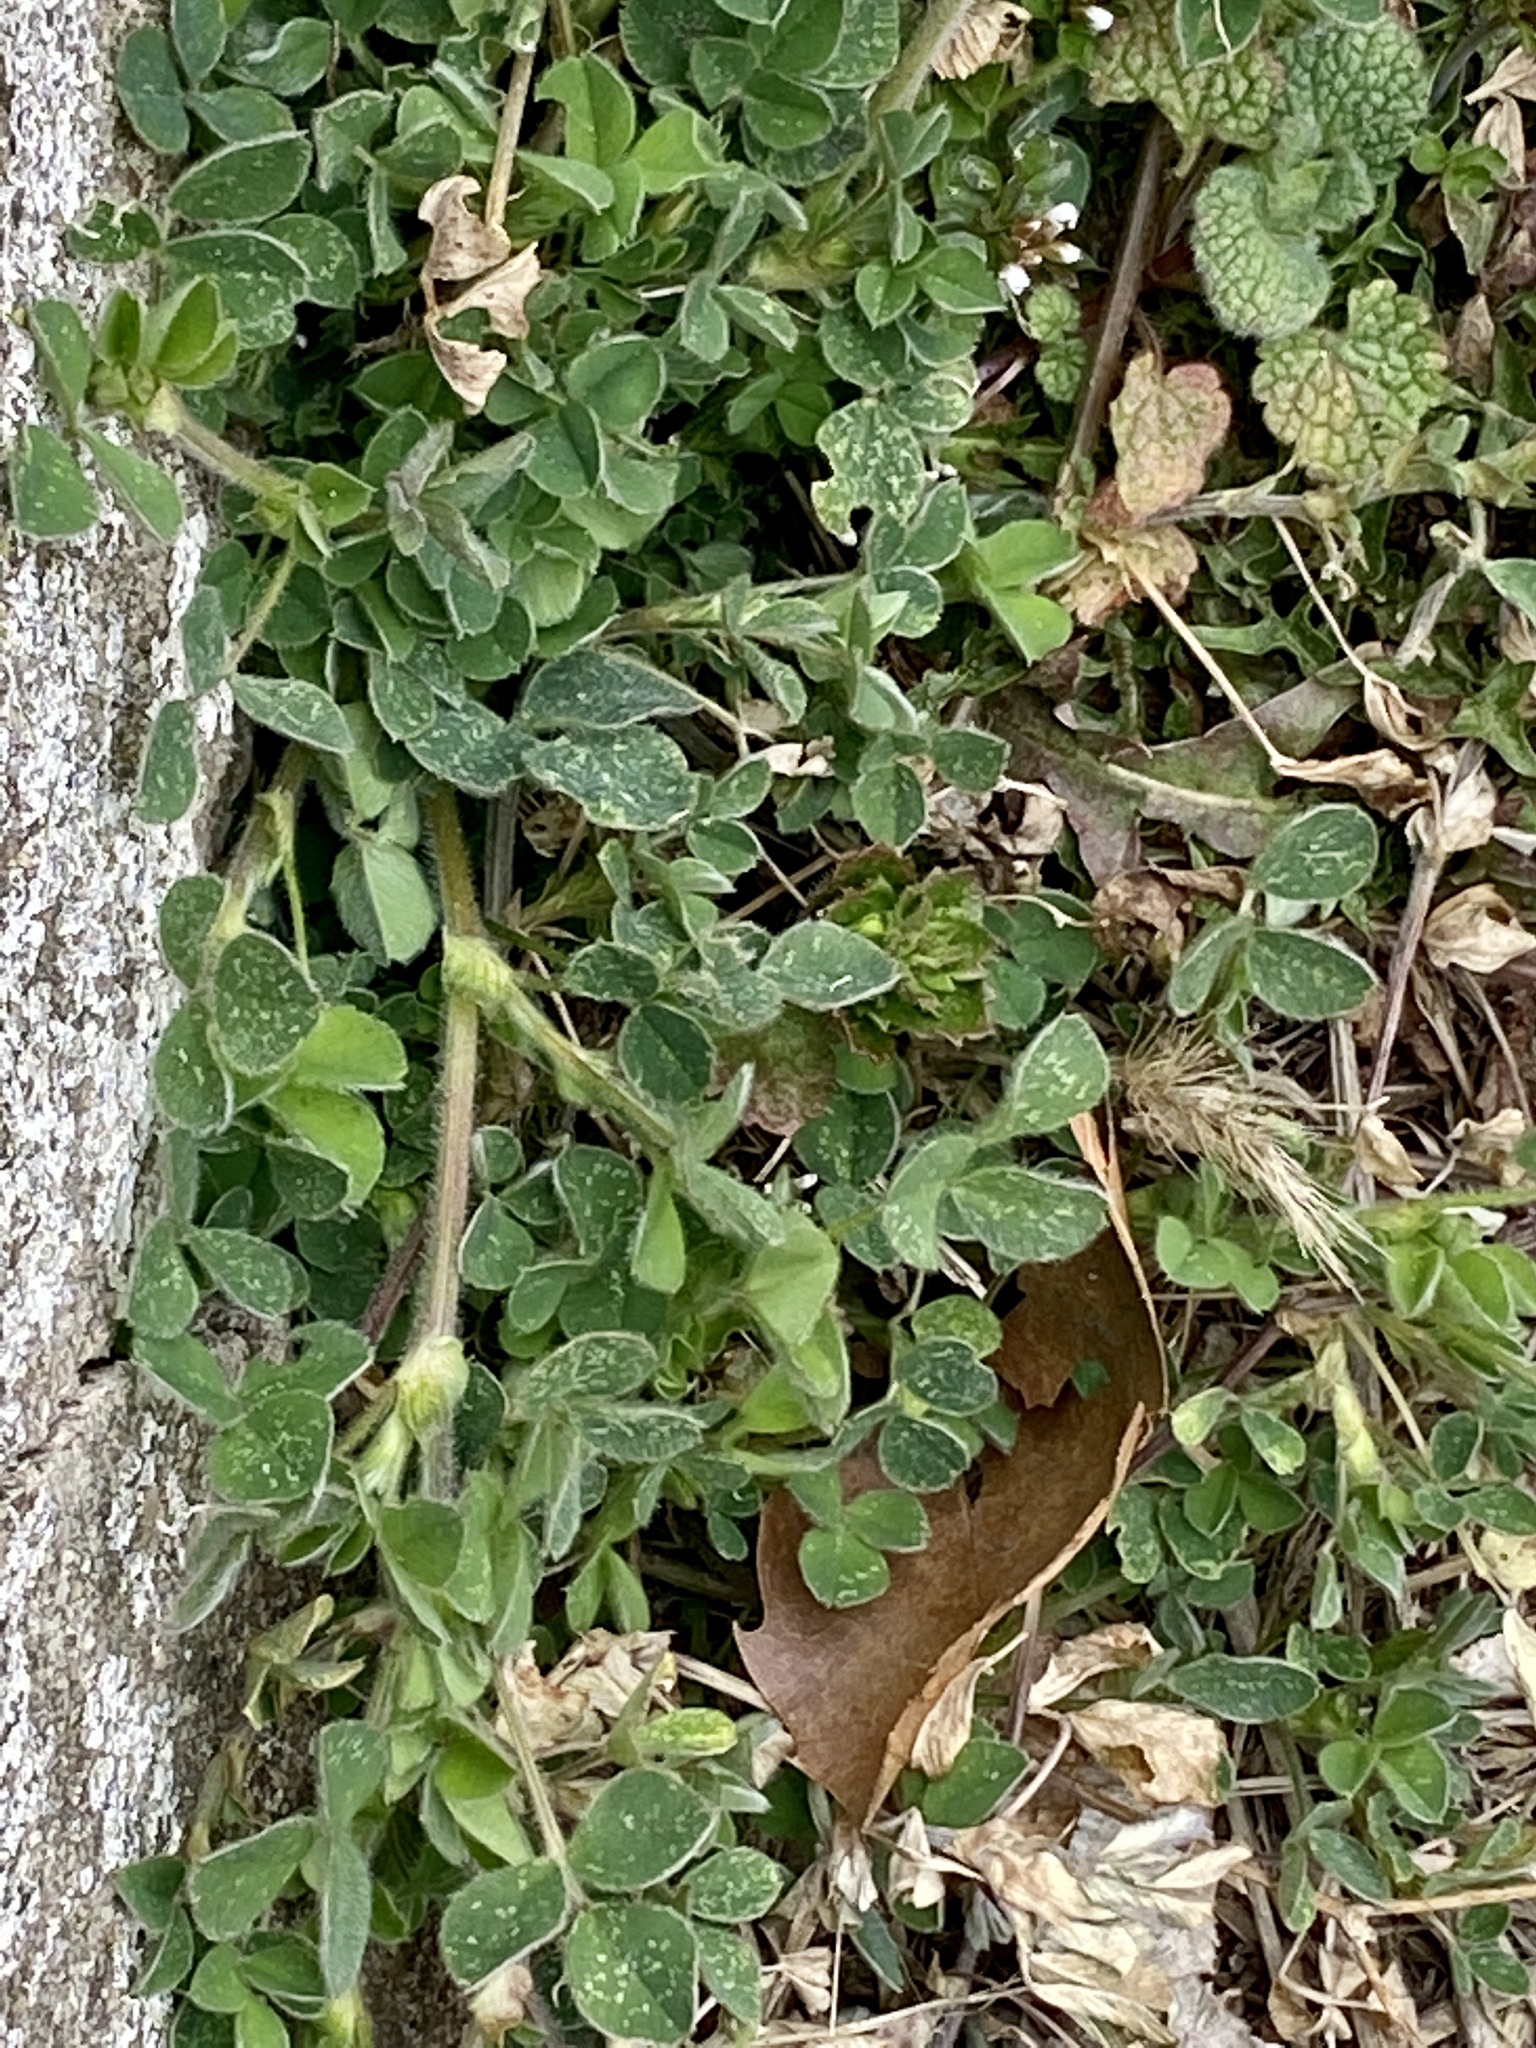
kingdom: Plantae
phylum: Tracheophyta
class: Magnoliopsida
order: Fabales
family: Fabaceae
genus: Medicago
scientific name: Medicago lupulina
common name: Black medick
